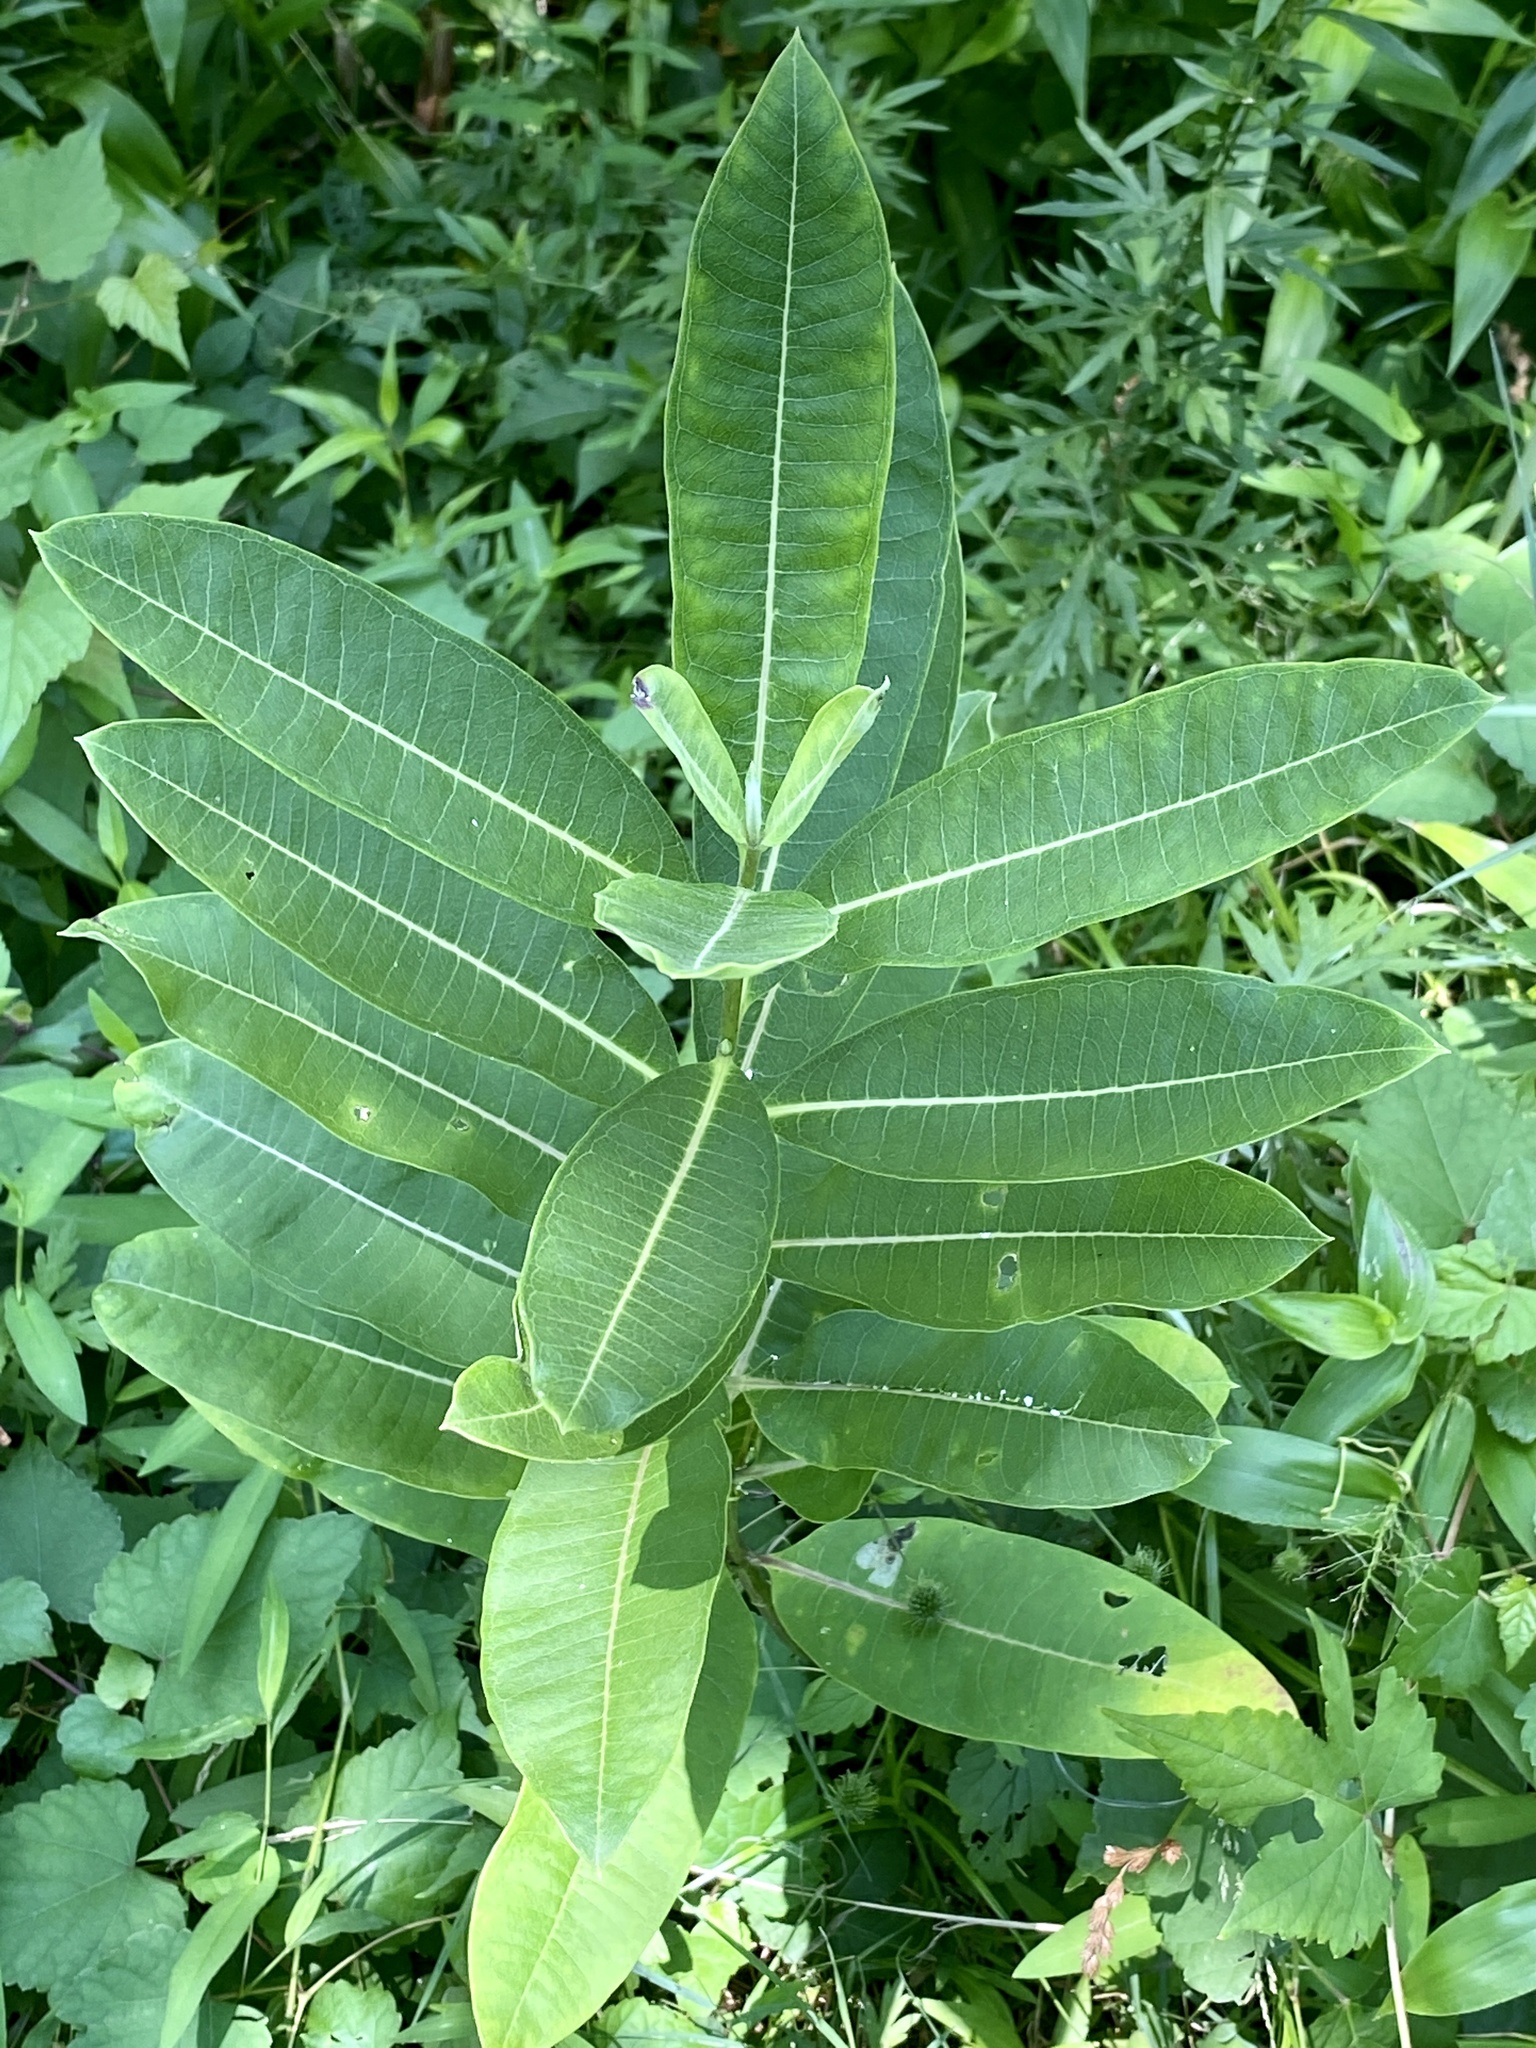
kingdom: Plantae
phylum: Tracheophyta
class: Magnoliopsida
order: Gentianales
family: Apocynaceae
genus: Asclepias
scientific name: Asclepias syriaca
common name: Common milkweed
